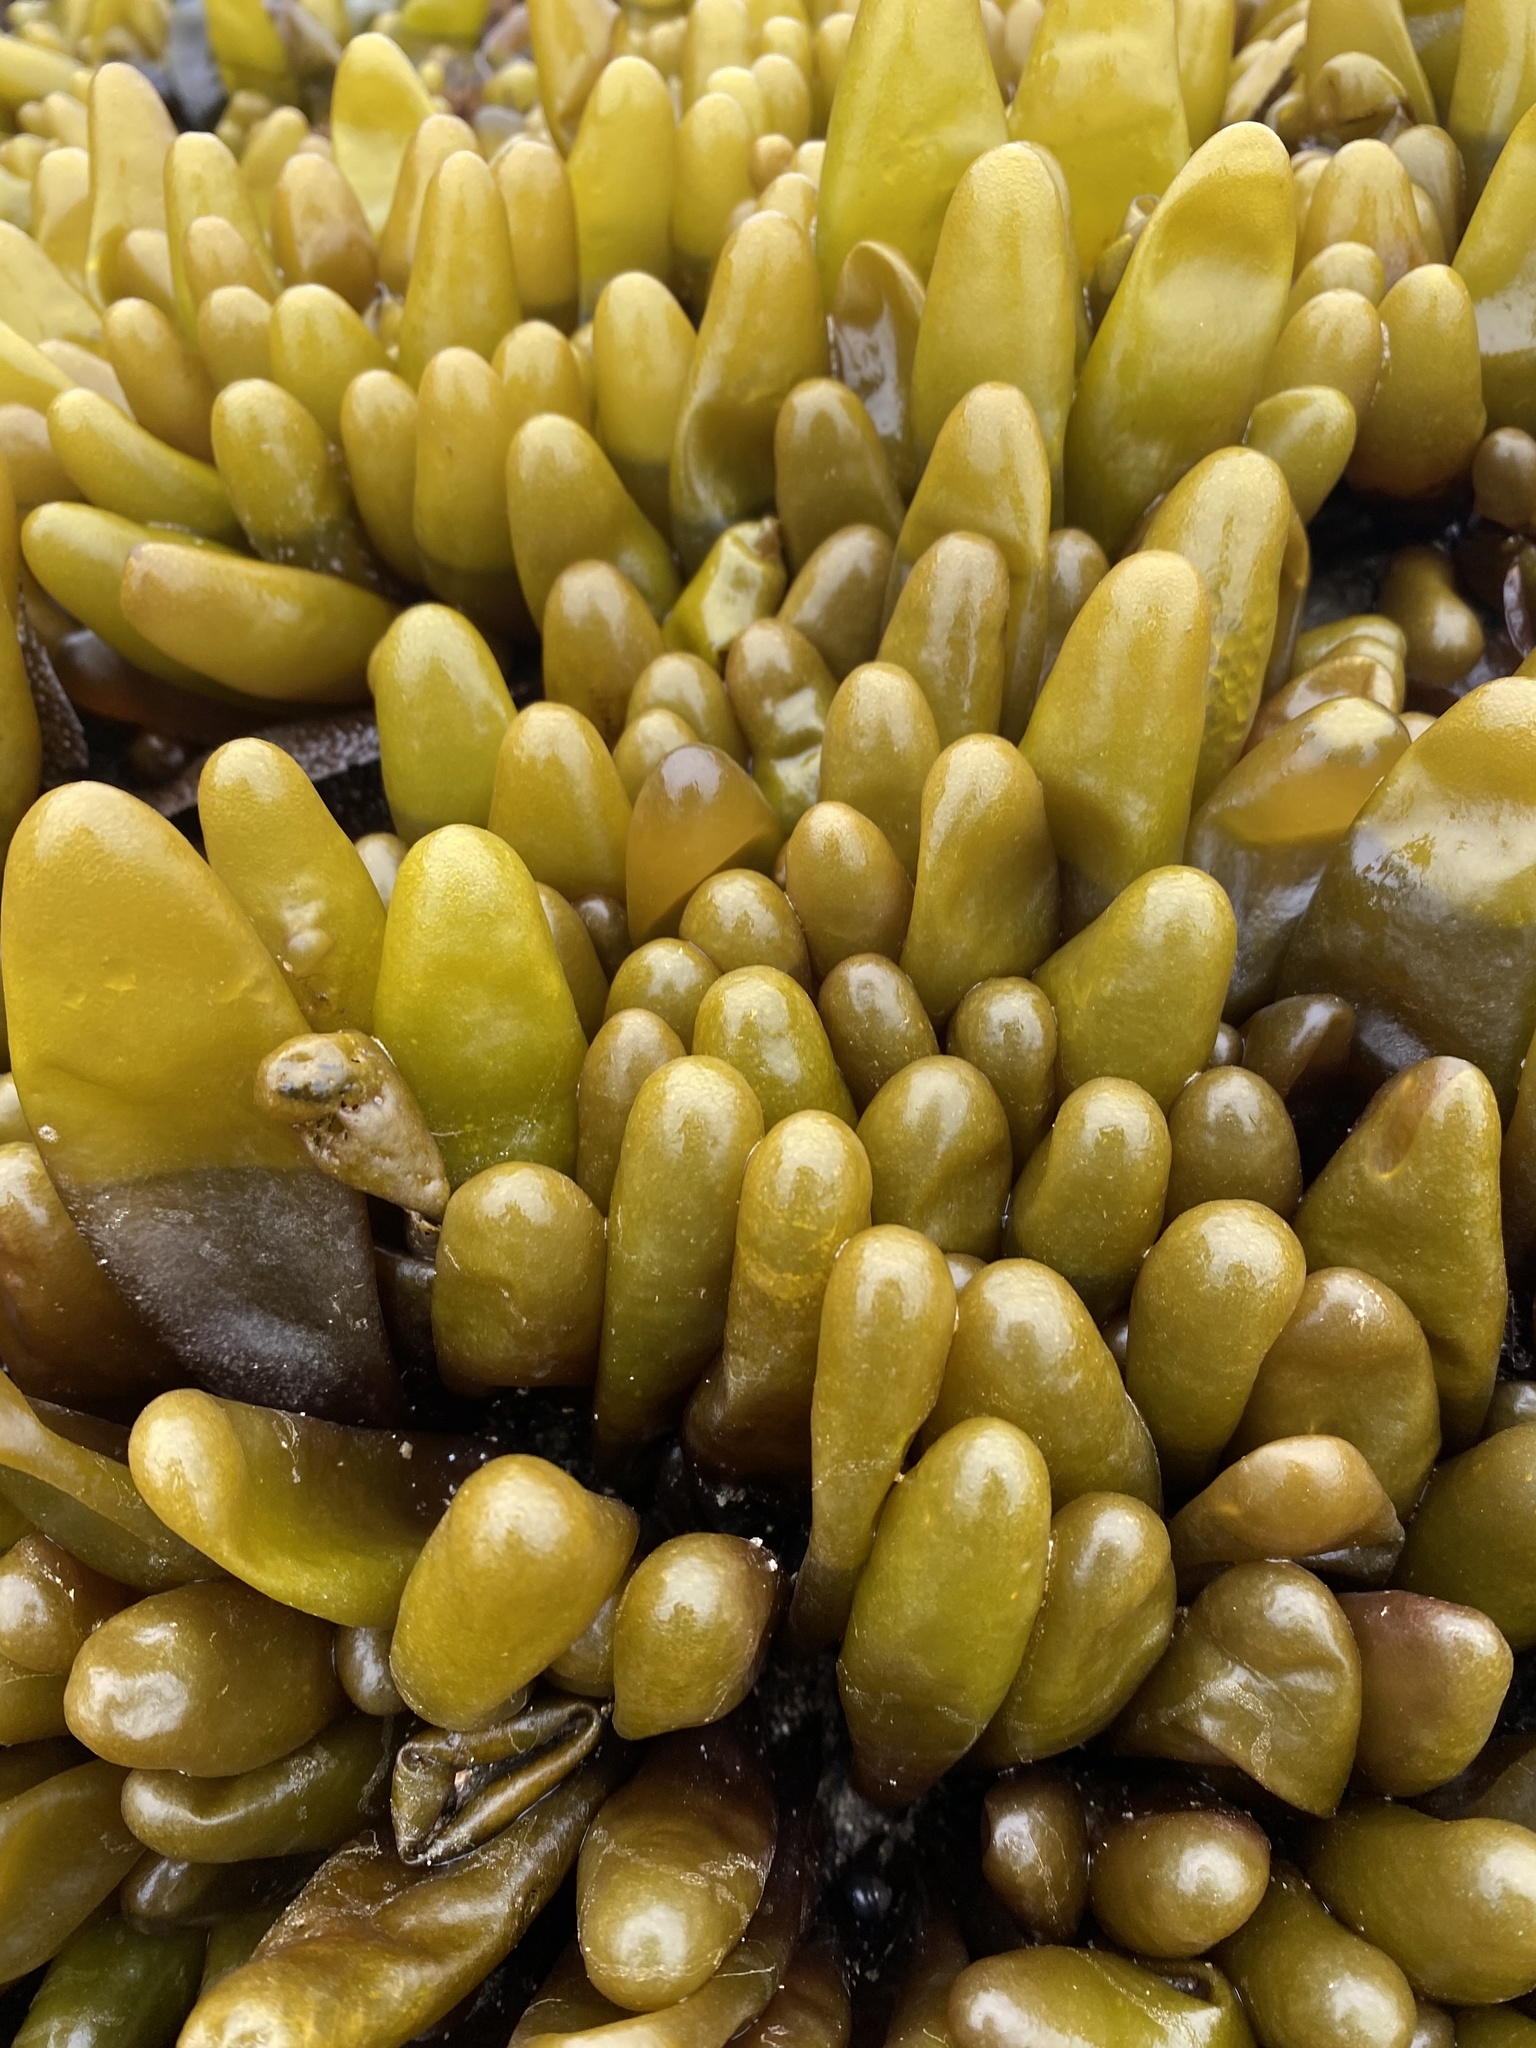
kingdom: Plantae
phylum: Rhodophyta
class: Florideophyceae
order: Palmariales
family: Palmariaceae
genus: Halosaccion
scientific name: Halosaccion glandiforme
